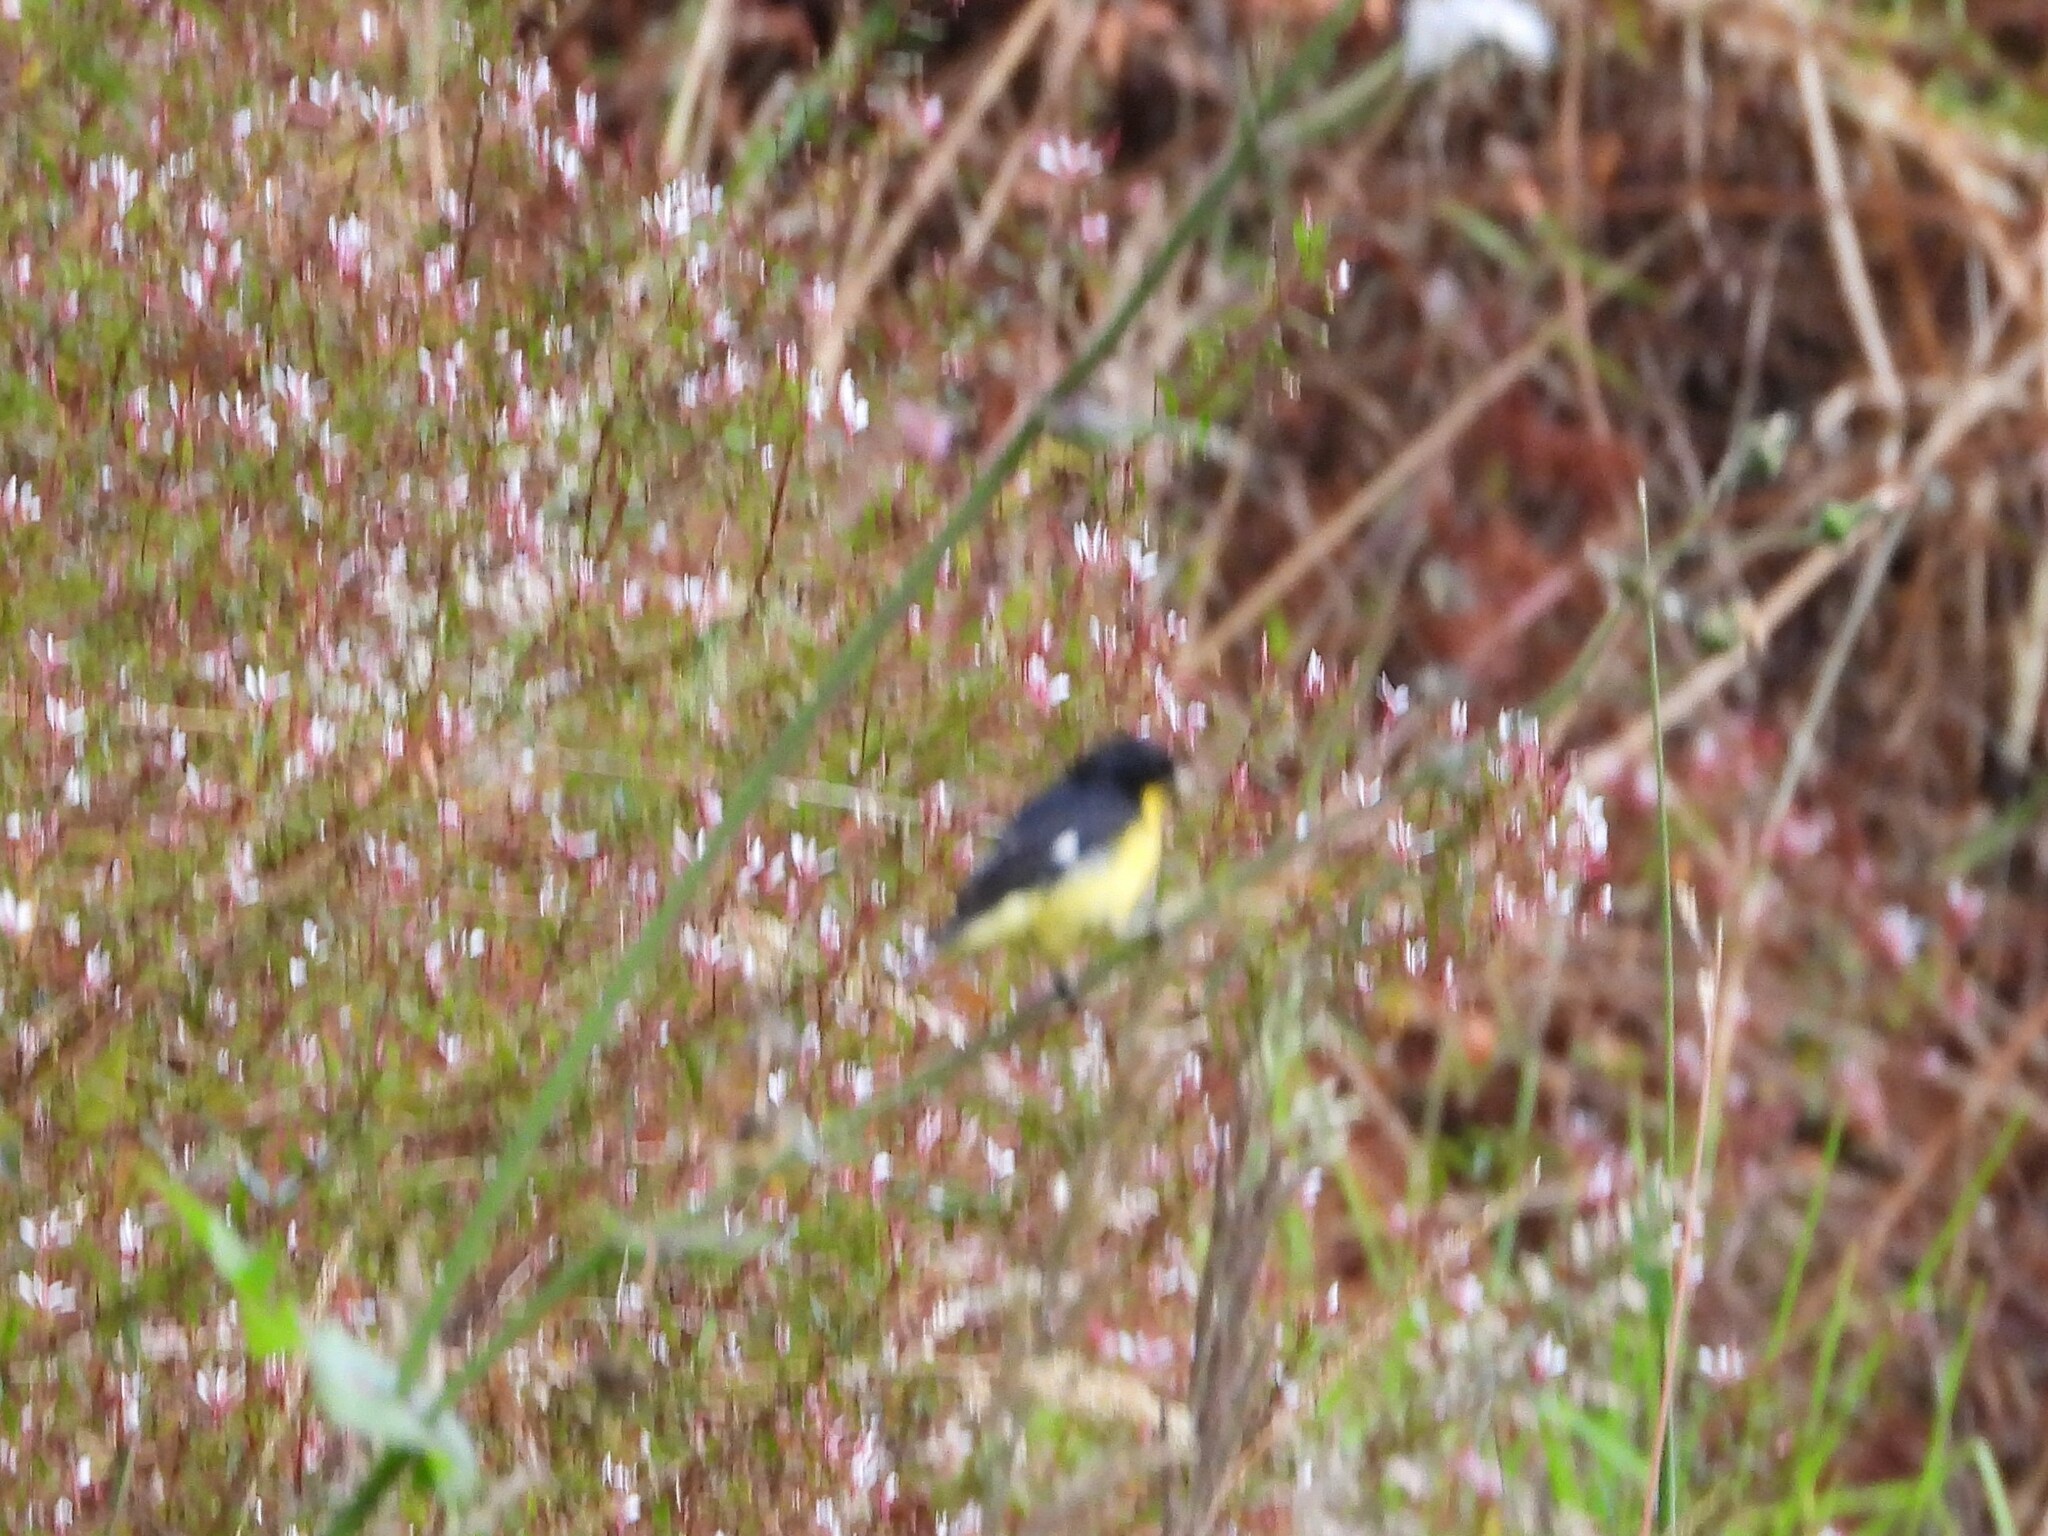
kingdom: Animalia
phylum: Chordata
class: Aves
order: Passeriformes
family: Fringillidae
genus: Spinus
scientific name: Spinus psaltria
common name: Lesser goldfinch
